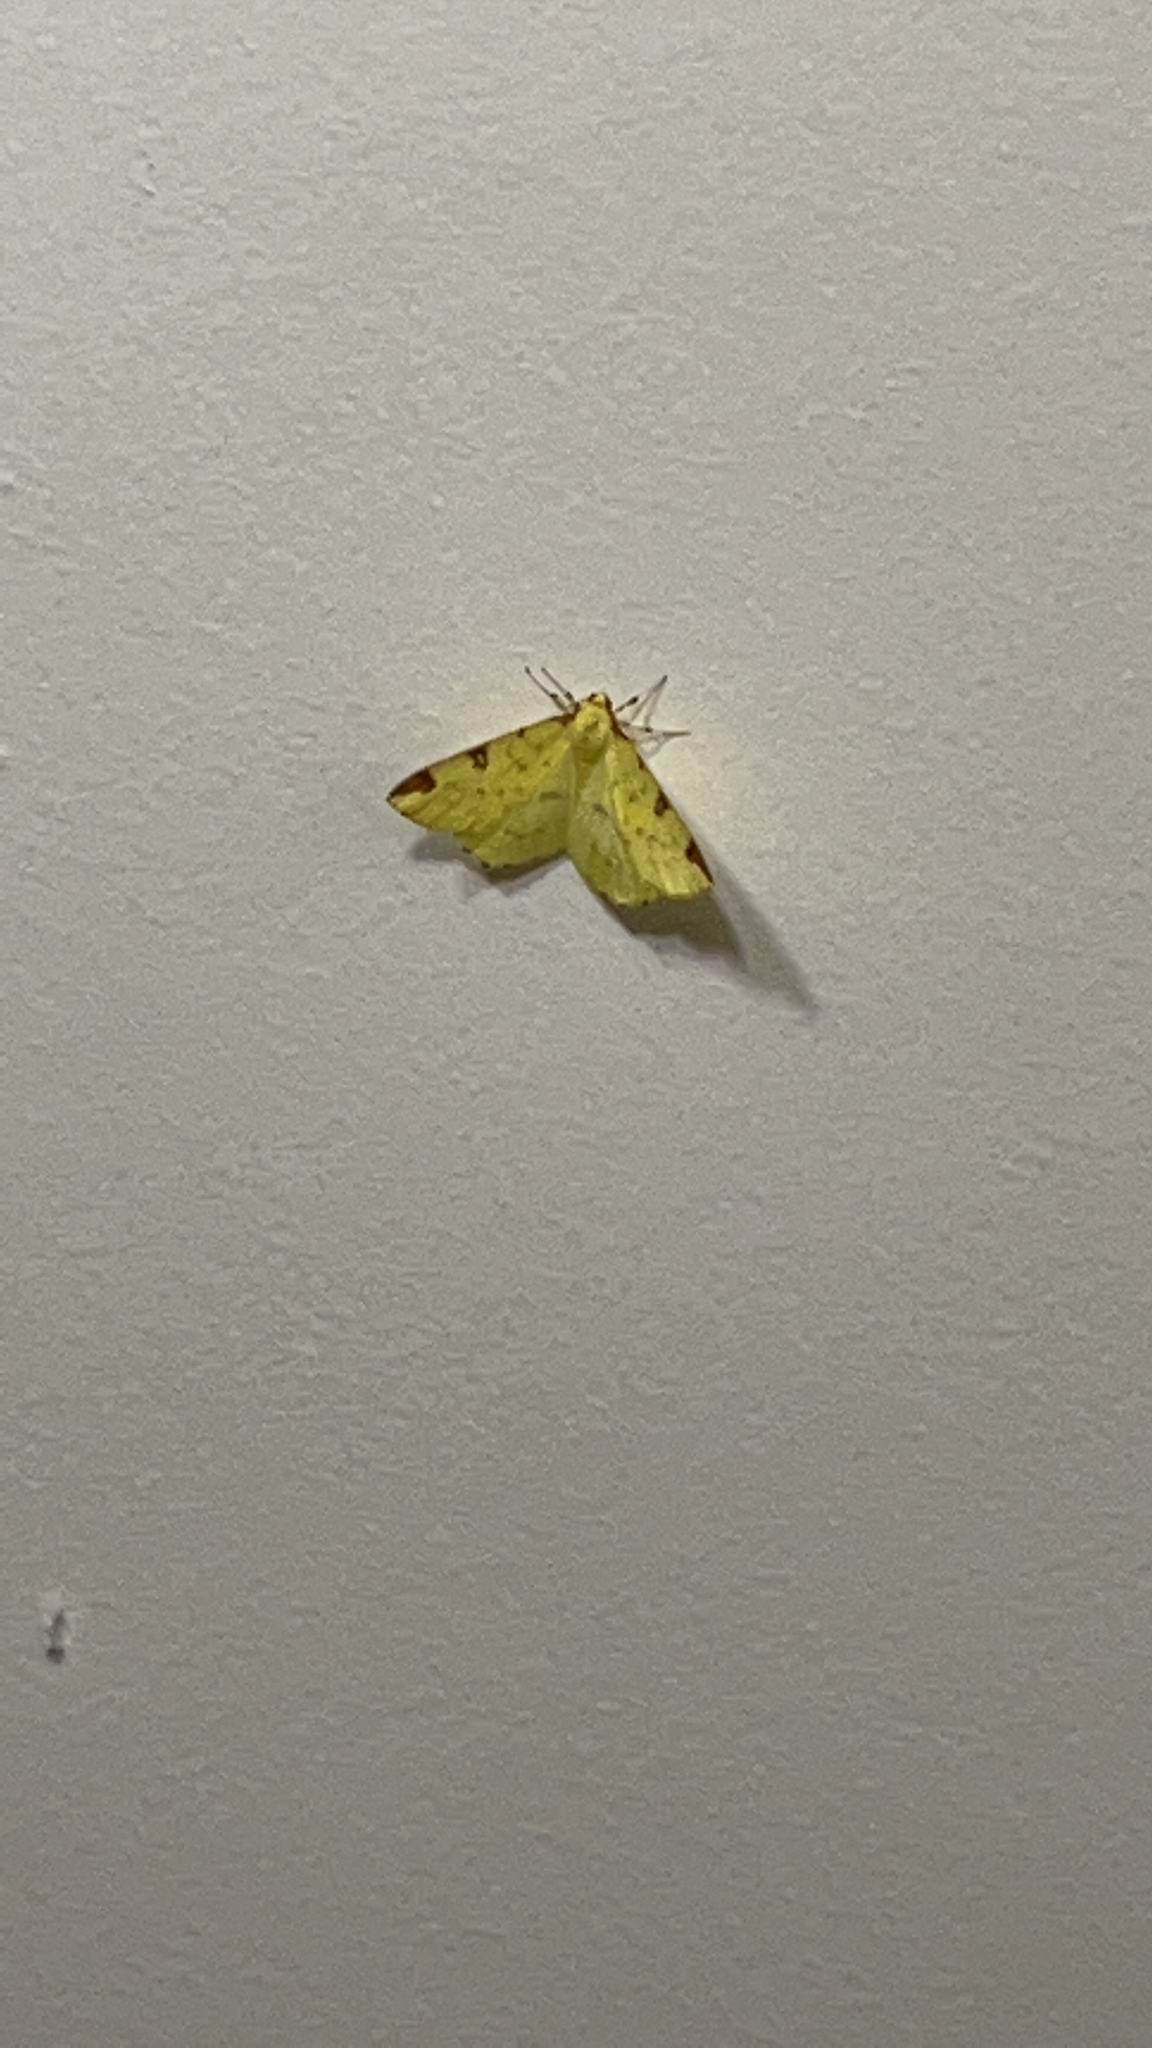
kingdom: Animalia
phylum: Arthropoda
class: Insecta
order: Lepidoptera
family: Geometridae
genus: Opisthograptis
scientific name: Opisthograptis luteolata
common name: Brimstone moth
